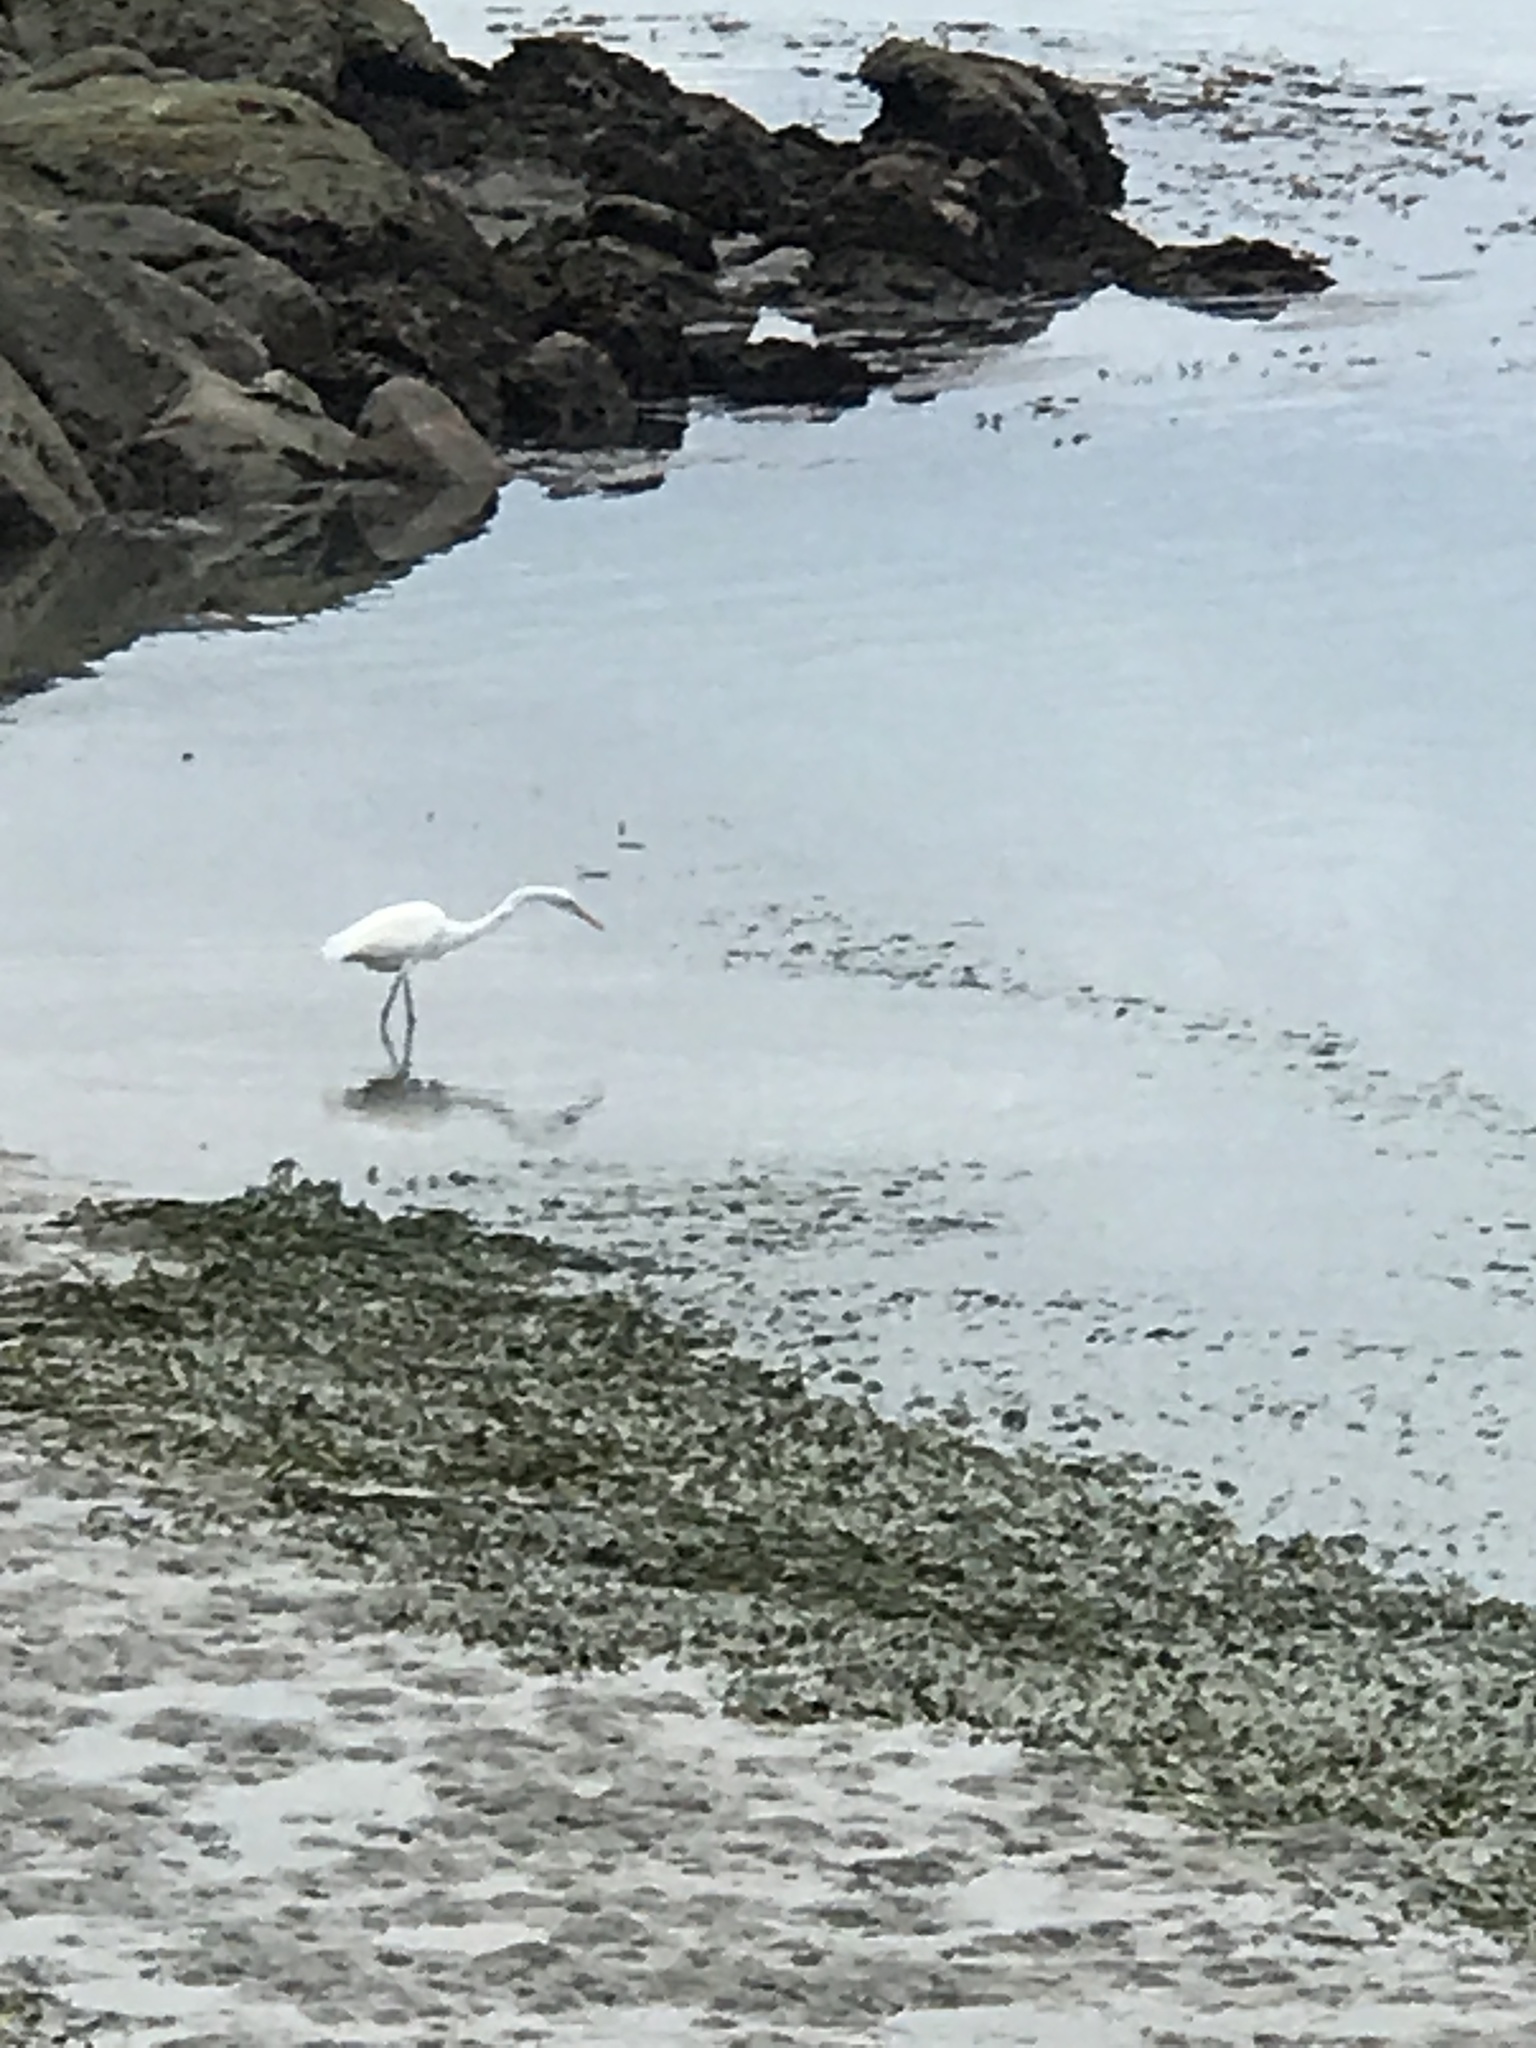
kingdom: Animalia
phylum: Chordata
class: Aves
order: Pelecaniformes
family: Ardeidae
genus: Ardea
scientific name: Ardea alba
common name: Great egret
